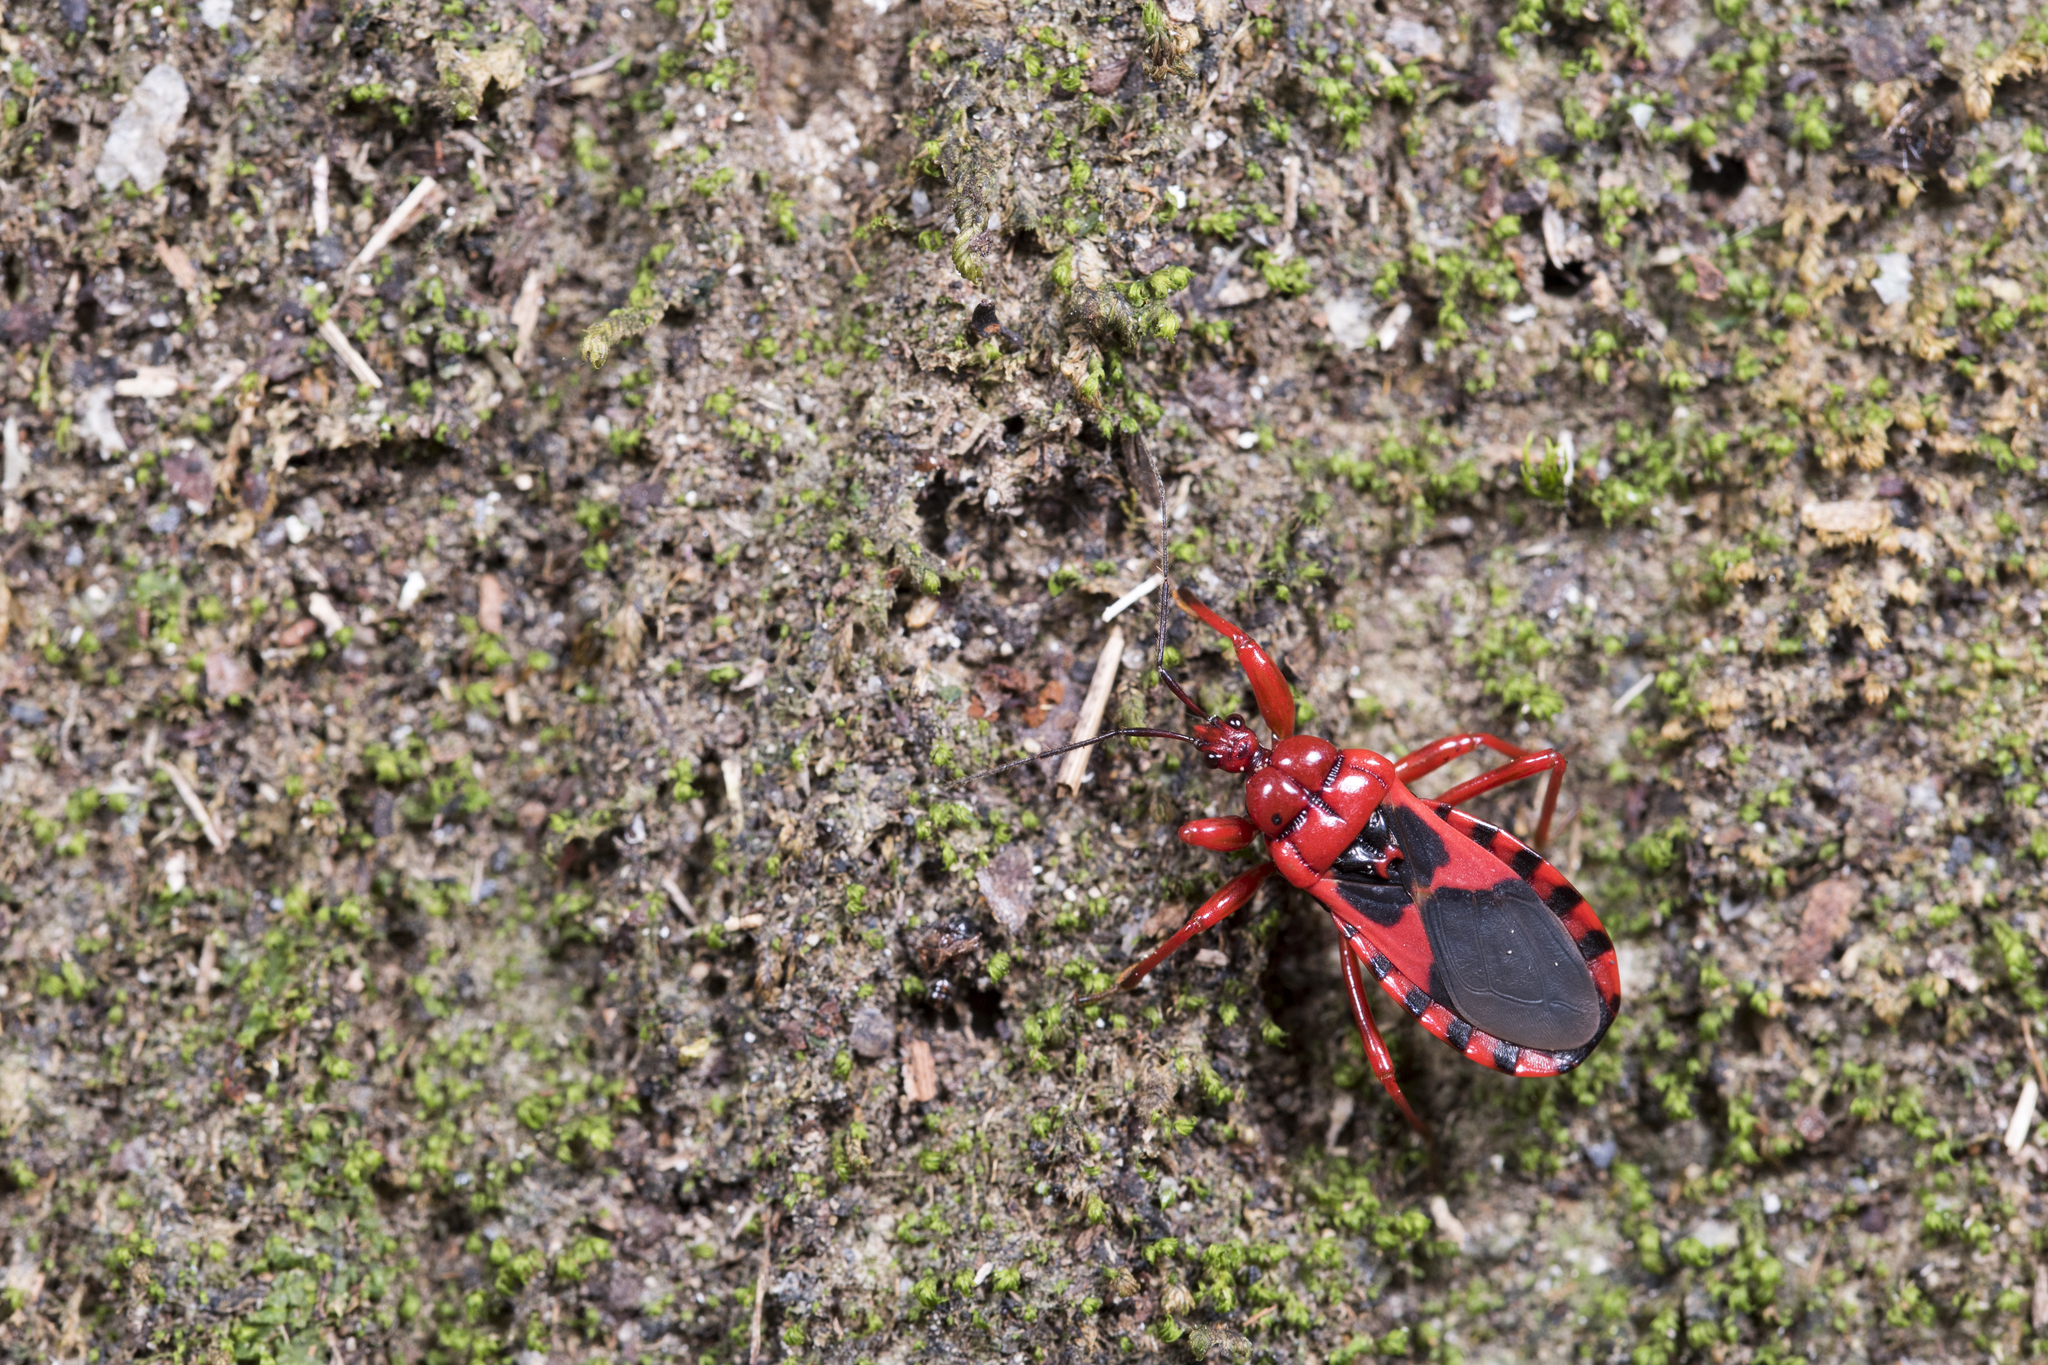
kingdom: Animalia
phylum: Arthropoda
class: Insecta
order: Hemiptera
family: Reduviidae
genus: Haematoloecha
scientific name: Haematoloecha nigrorufa
